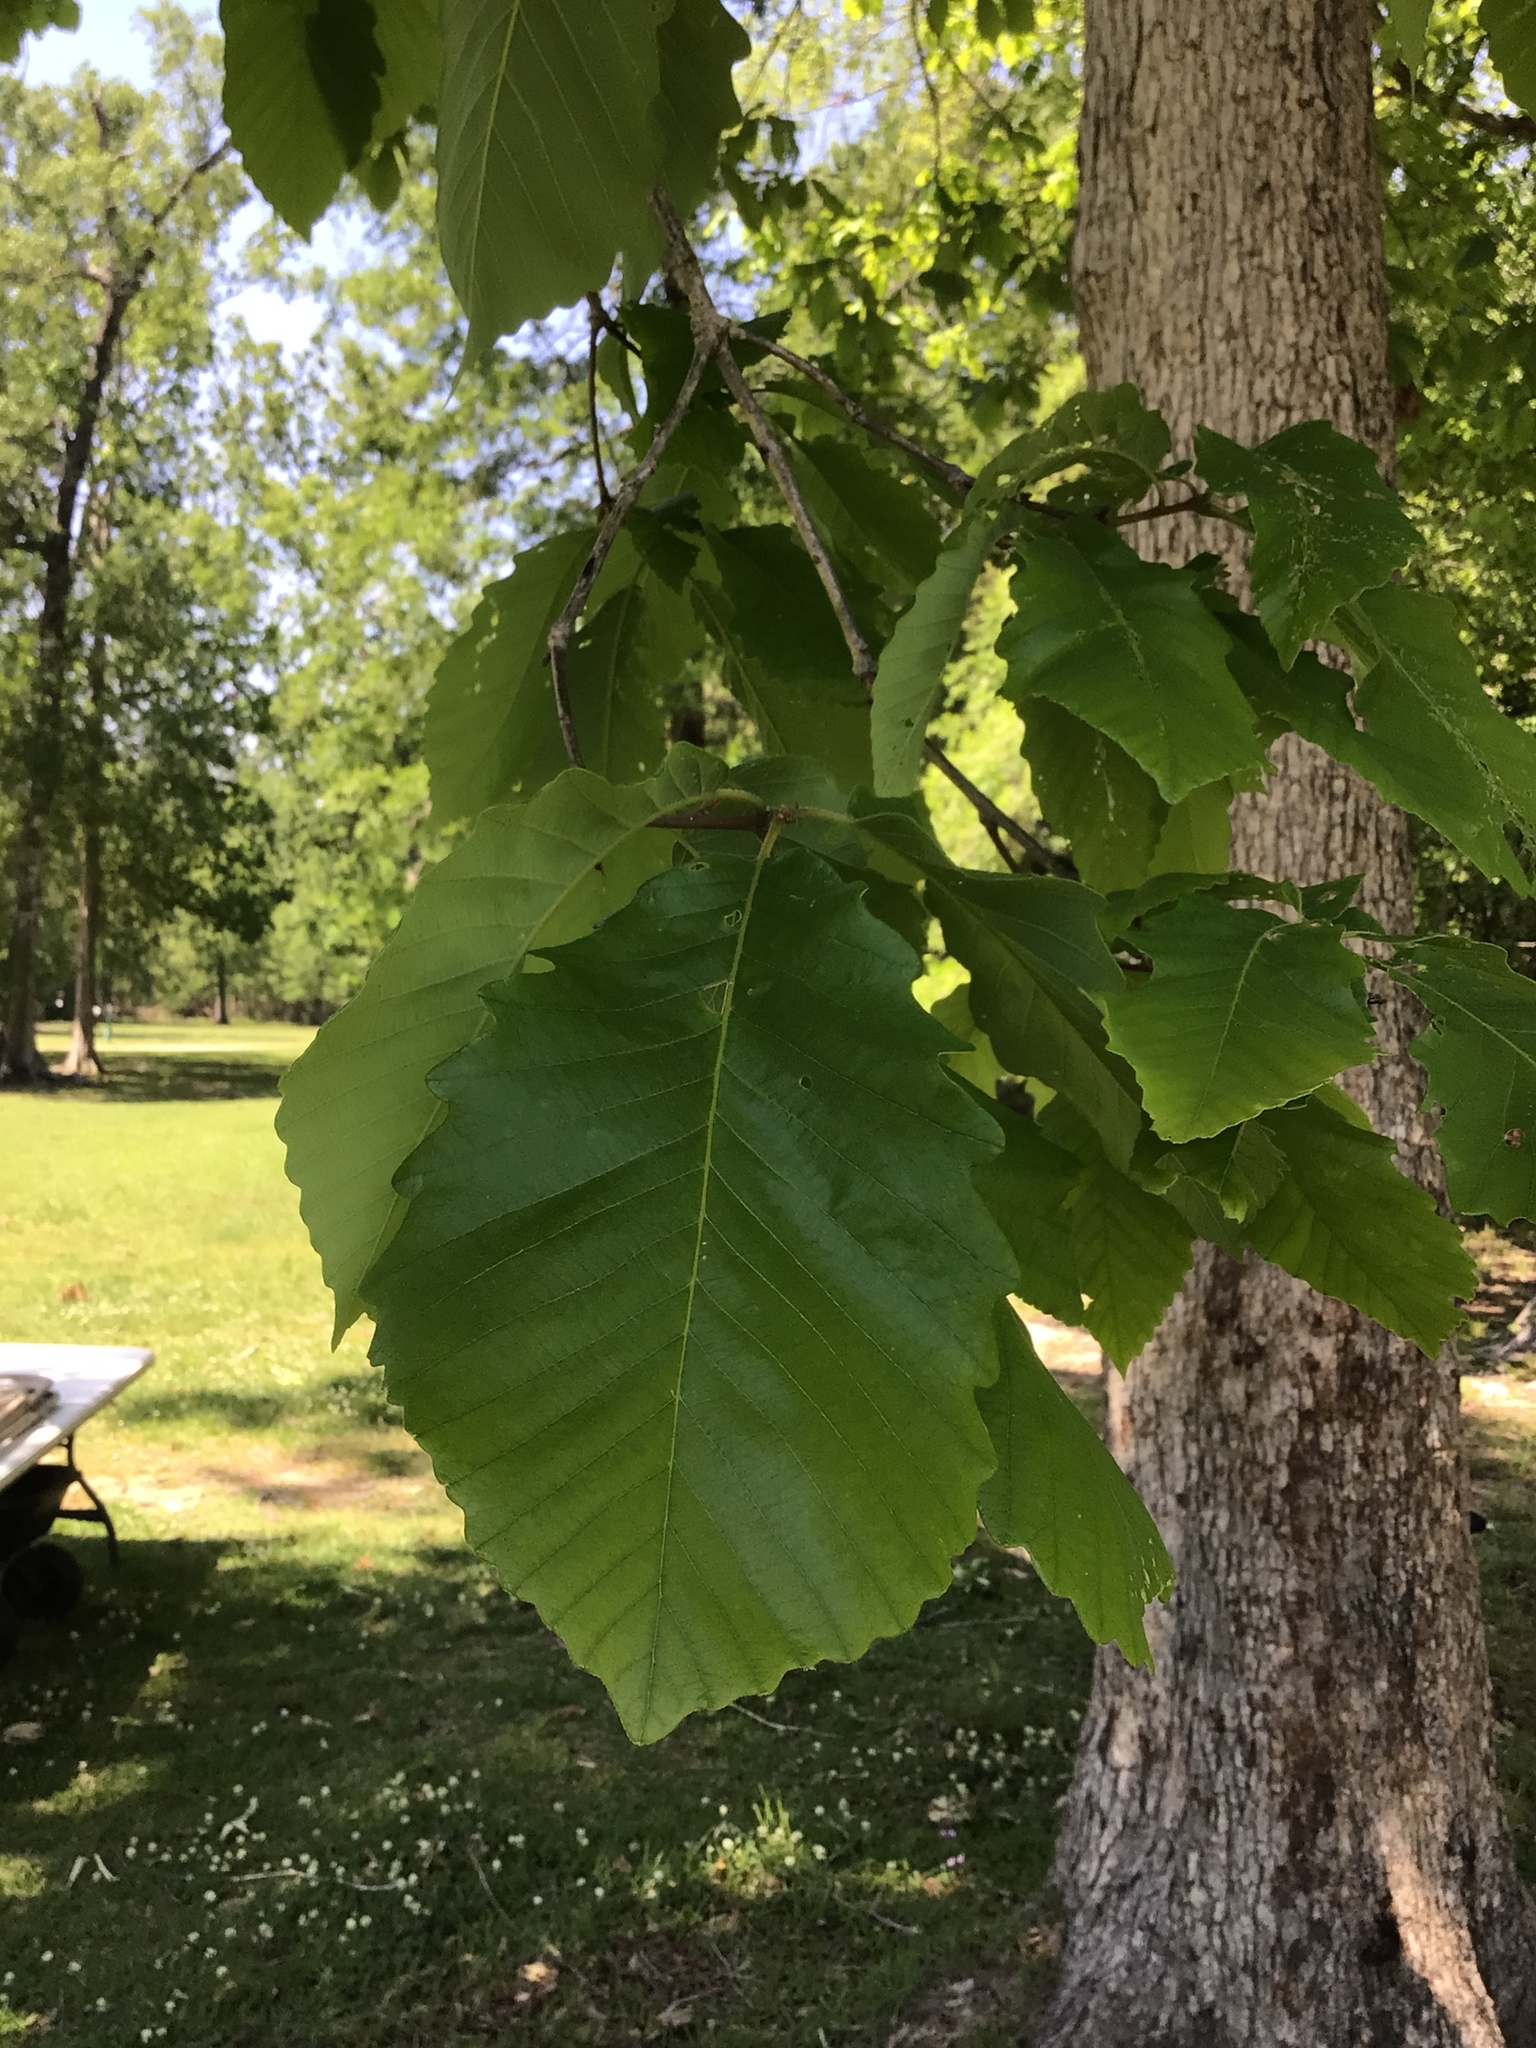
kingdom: Plantae
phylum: Tracheophyta
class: Magnoliopsida
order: Fagales
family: Fagaceae
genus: Quercus
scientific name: Quercus michauxii
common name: Swamp chestnut oak
